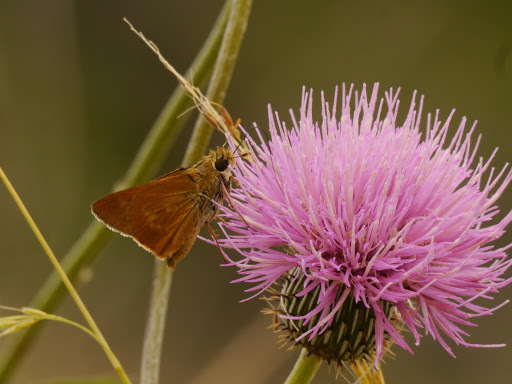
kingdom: Animalia
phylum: Arthropoda
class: Insecta
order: Lepidoptera
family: Hesperiidae
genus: Polites
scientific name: Polites otho
